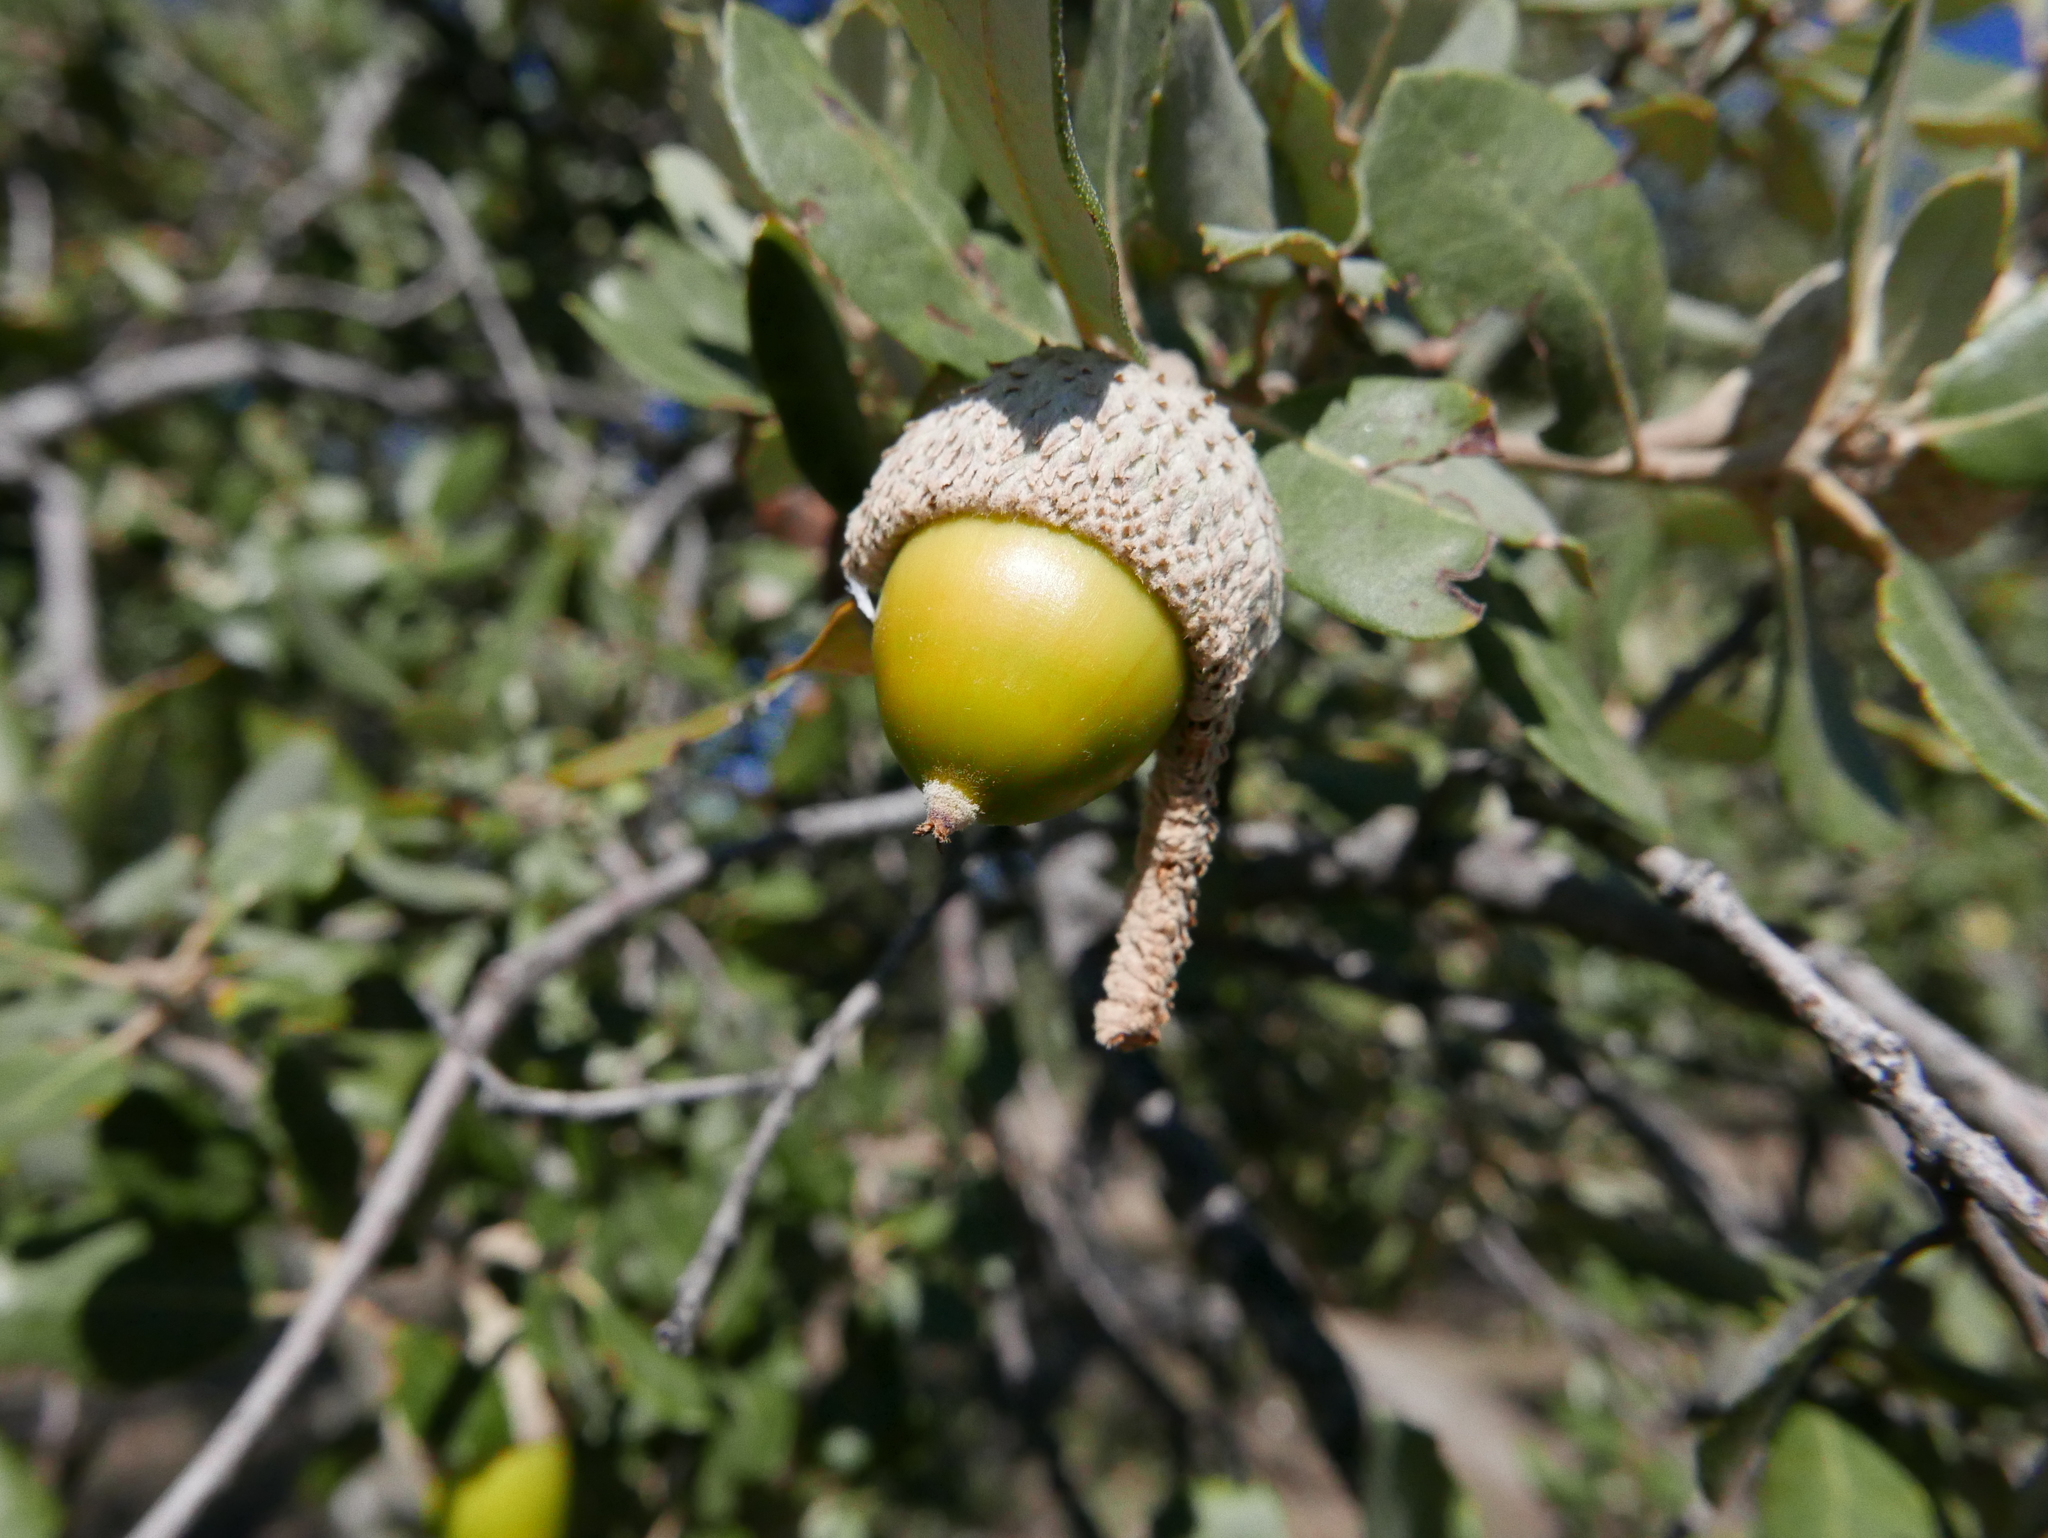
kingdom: Plantae
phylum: Tracheophyta
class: Magnoliopsida
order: Fagales
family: Fagaceae
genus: Quercus
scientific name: Quercus rotundifolia
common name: Holm oak
